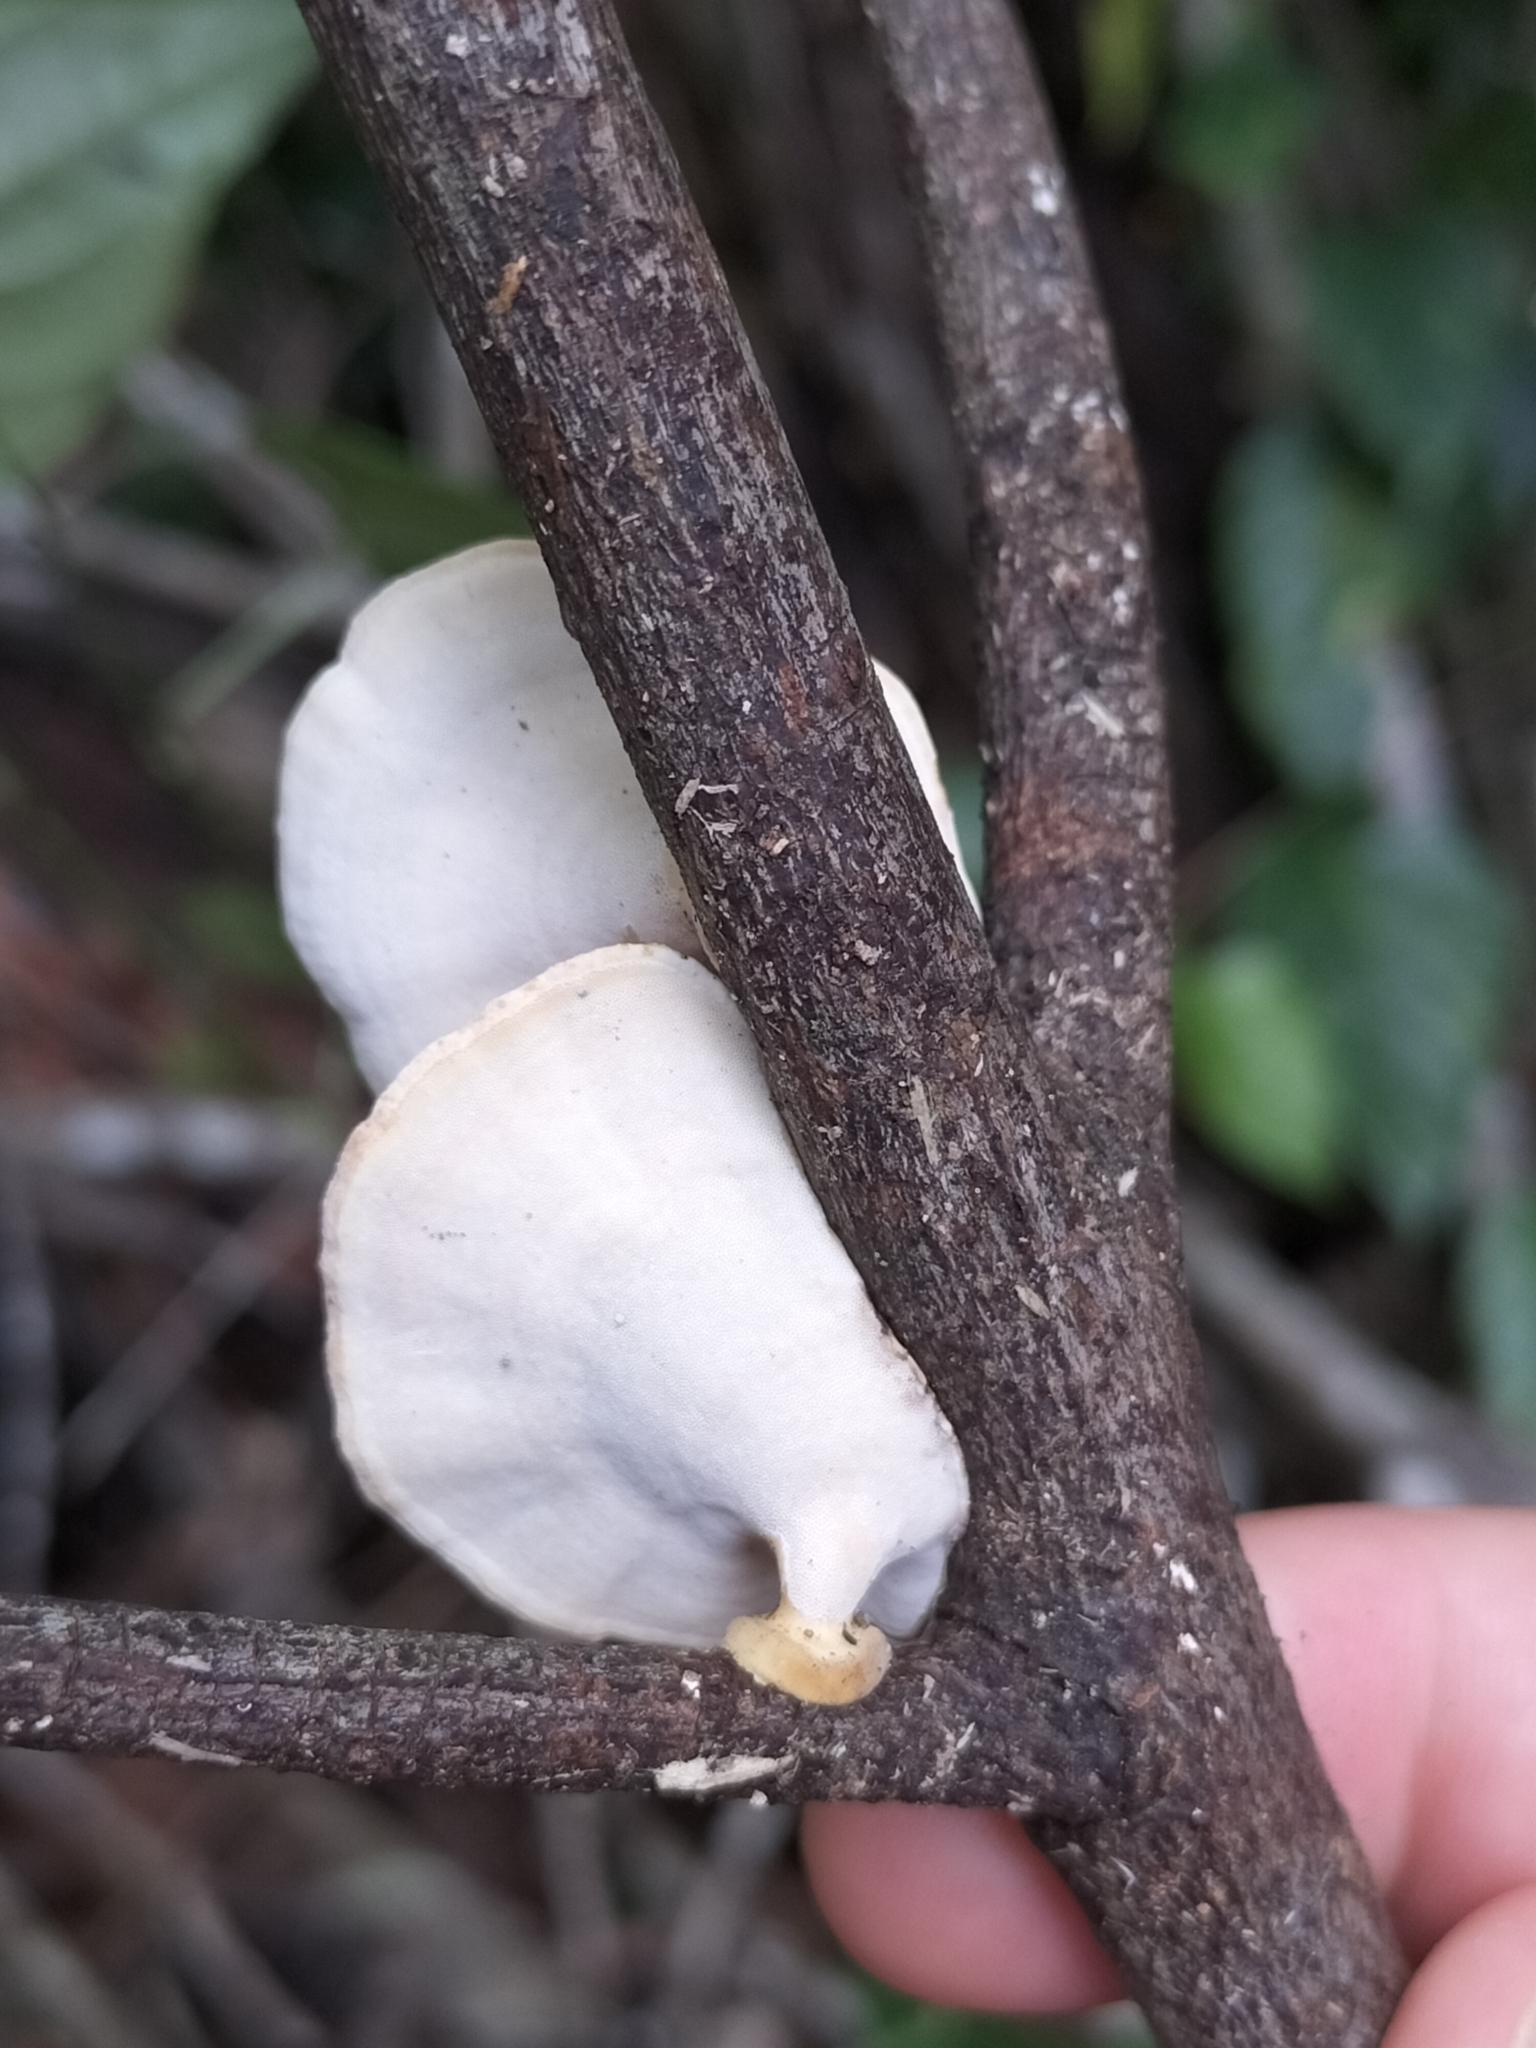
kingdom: Fungi
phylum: Basidiomycota
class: Agaricomycetes
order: Polyporales
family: Polyporaceae
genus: Microporus
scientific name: Microporus xanthopus
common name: Yellow-stemmed micropore
